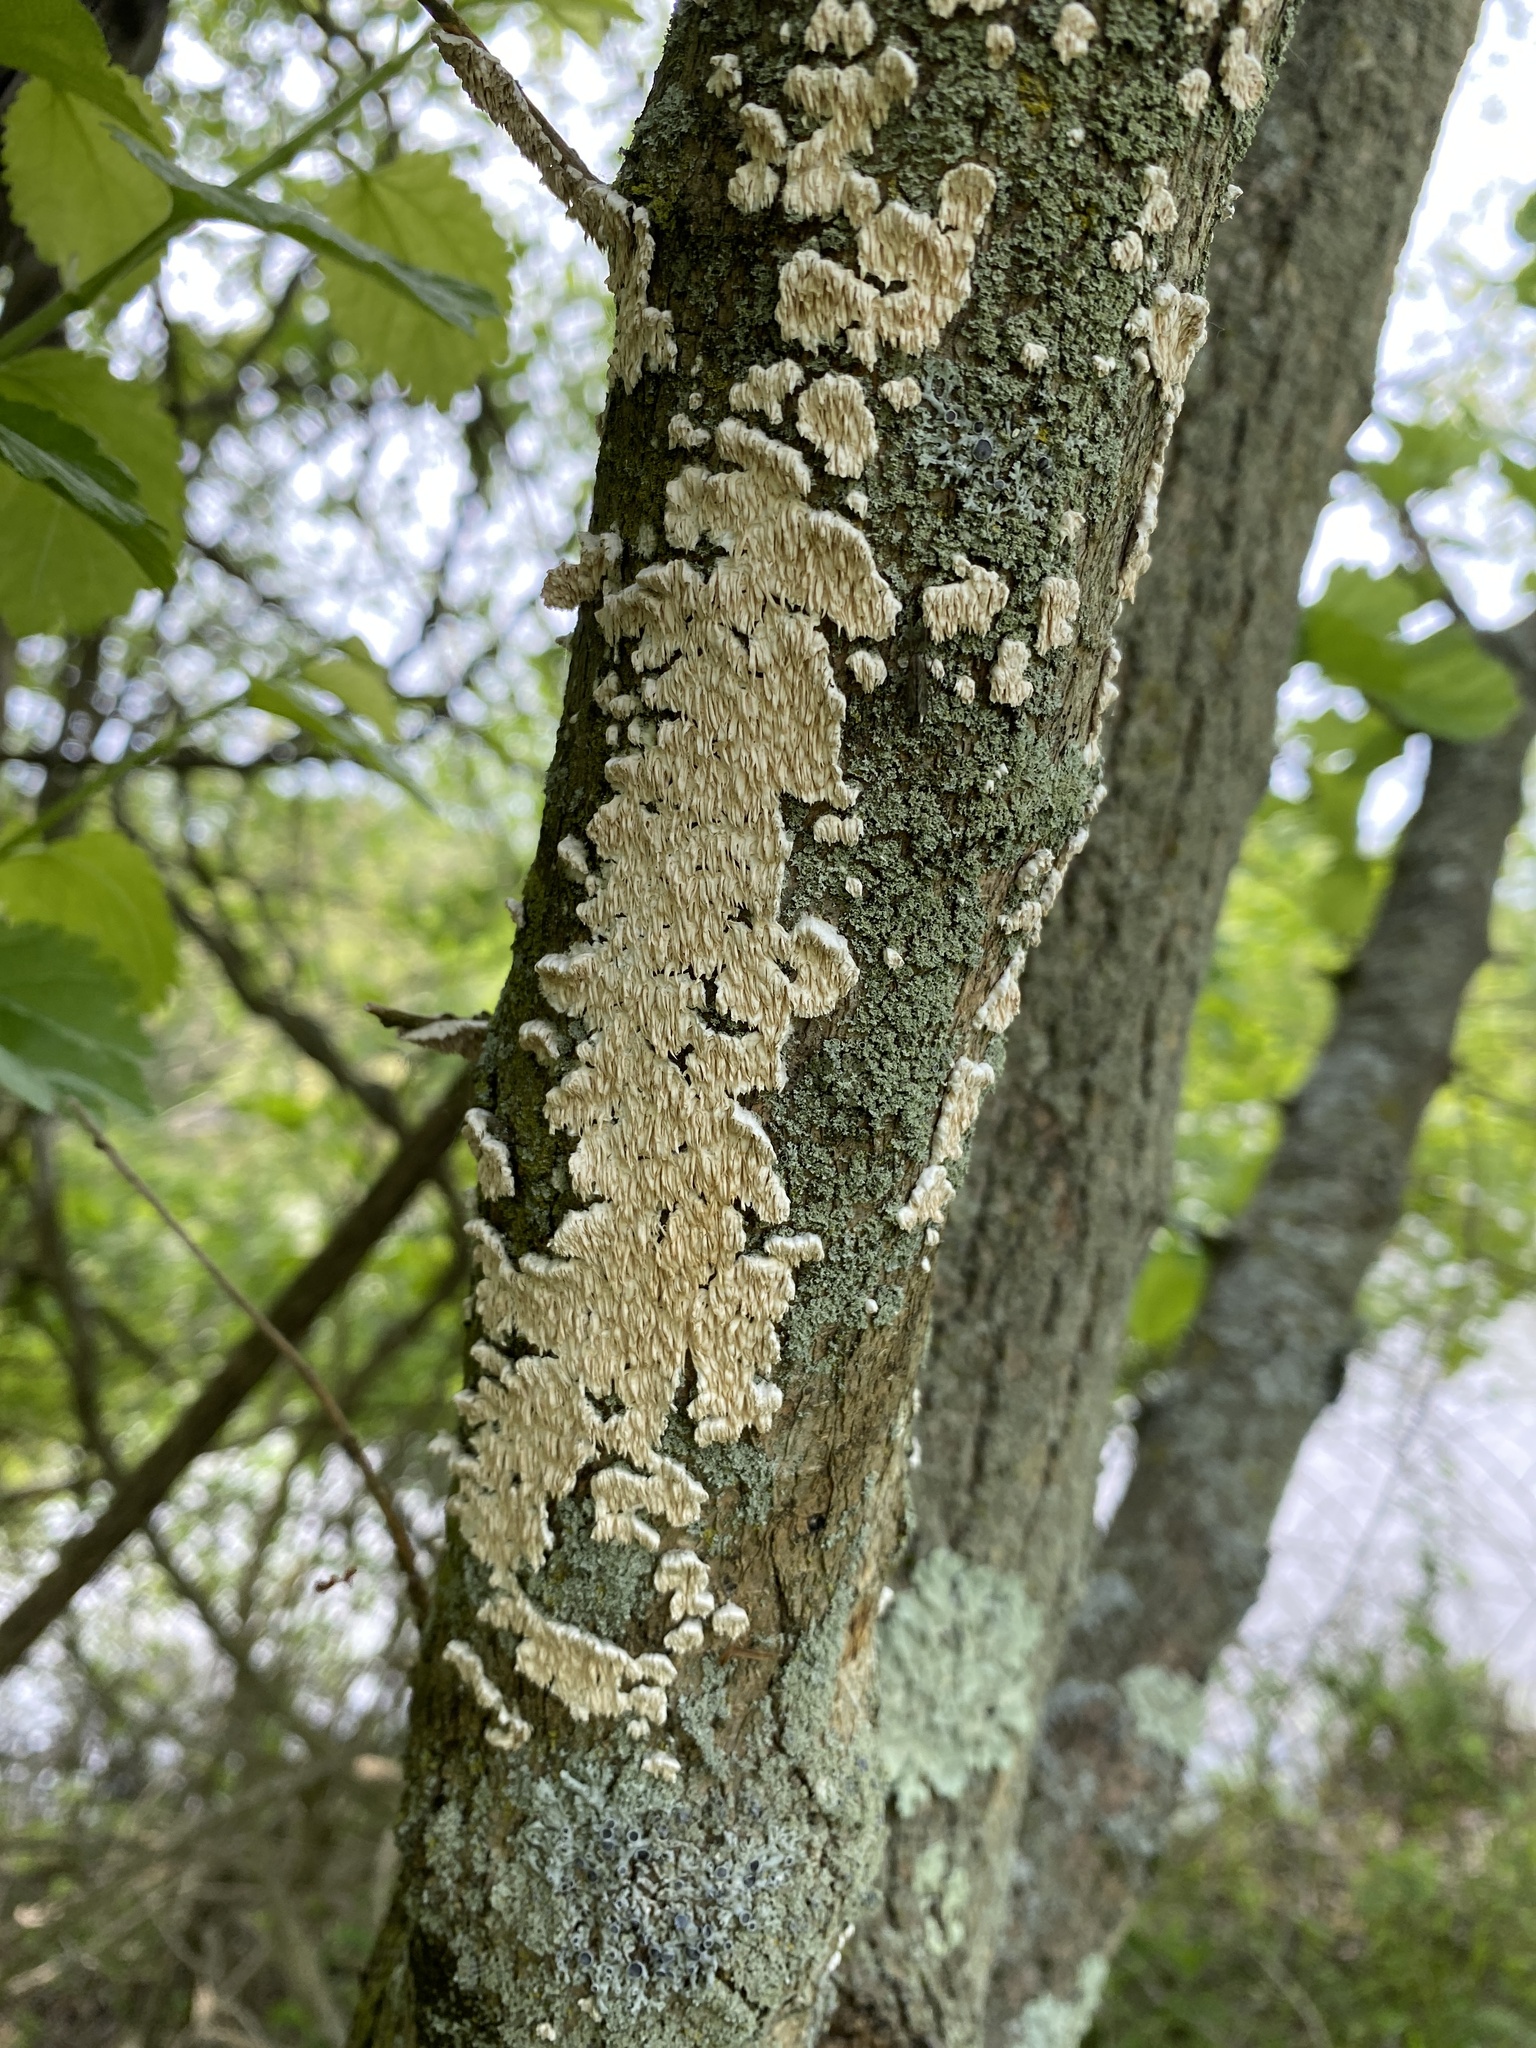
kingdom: Fungi
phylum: Basidiomycota
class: Agaricomycetes
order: Polyporales
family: Irpicaceae
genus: Irpex
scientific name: Irpex lacteus
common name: Milk-white toothed polypore
